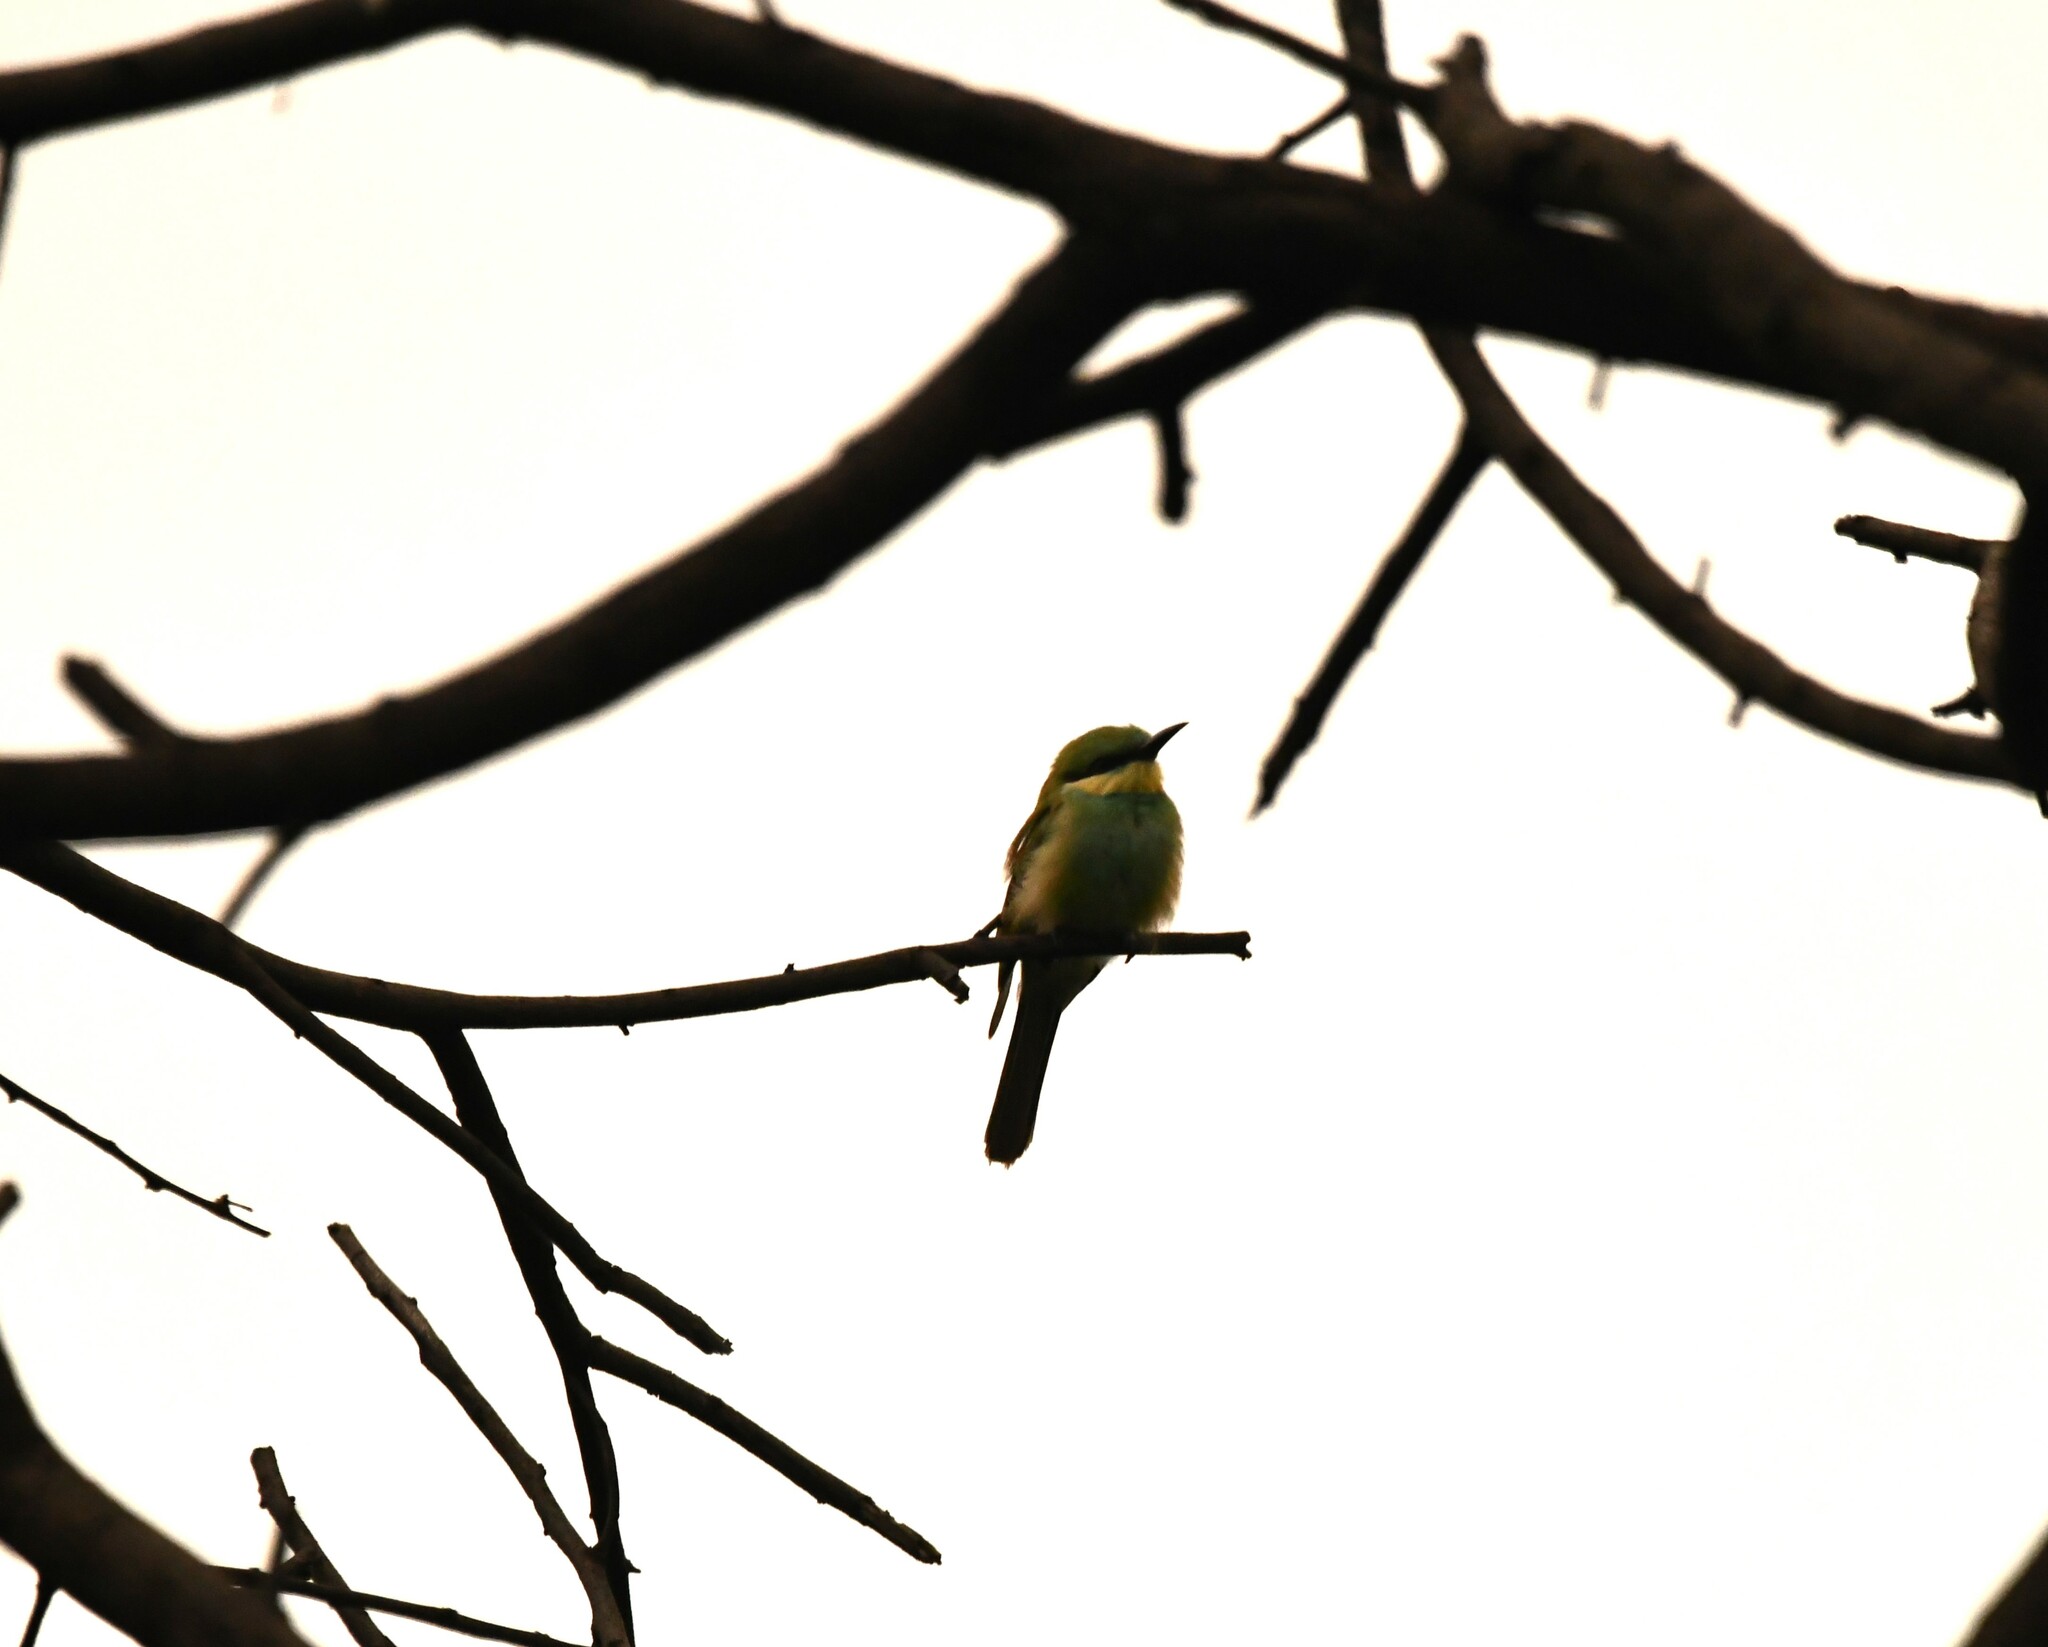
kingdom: Animalia
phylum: Chordata
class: Aves
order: Coraciiformes
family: Meropidae
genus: Merops
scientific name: Merops orientalis
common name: Green bee-eater
